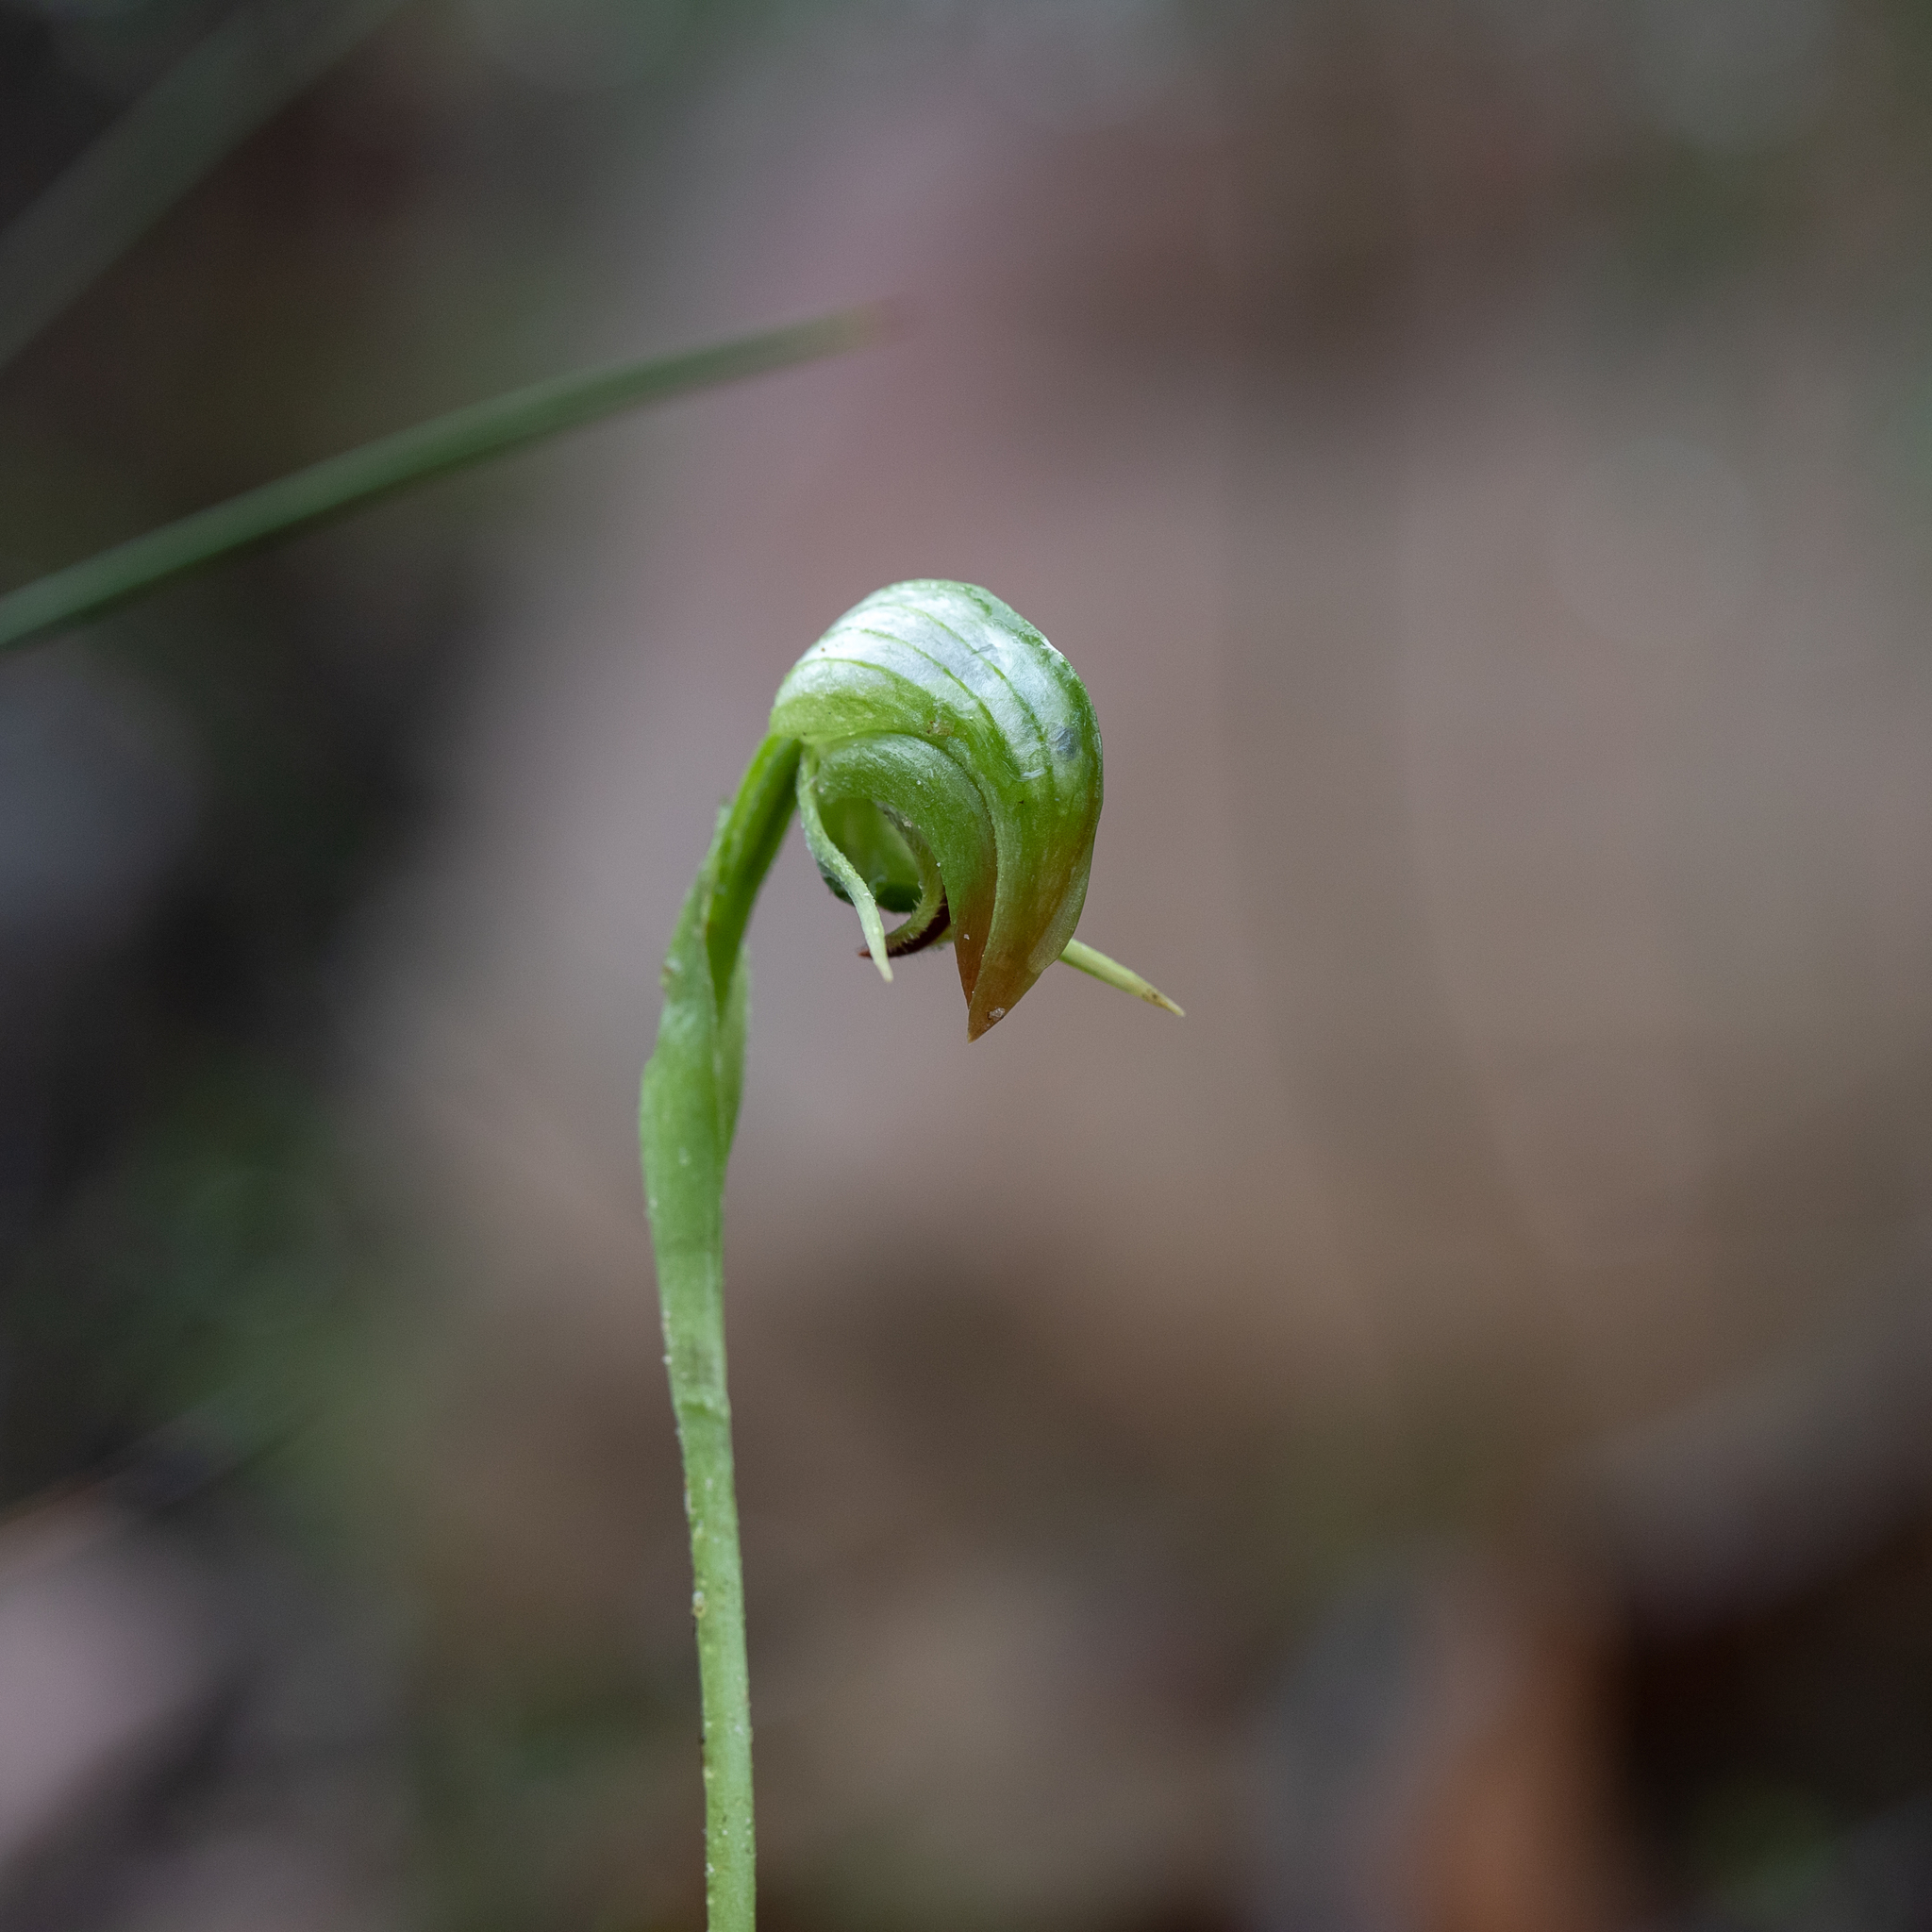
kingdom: Plantae
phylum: Tracheophyta
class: Liliopsida
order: Asparagales
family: Orchidaceae
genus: Pterostylis
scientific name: Pterostylis nutans
